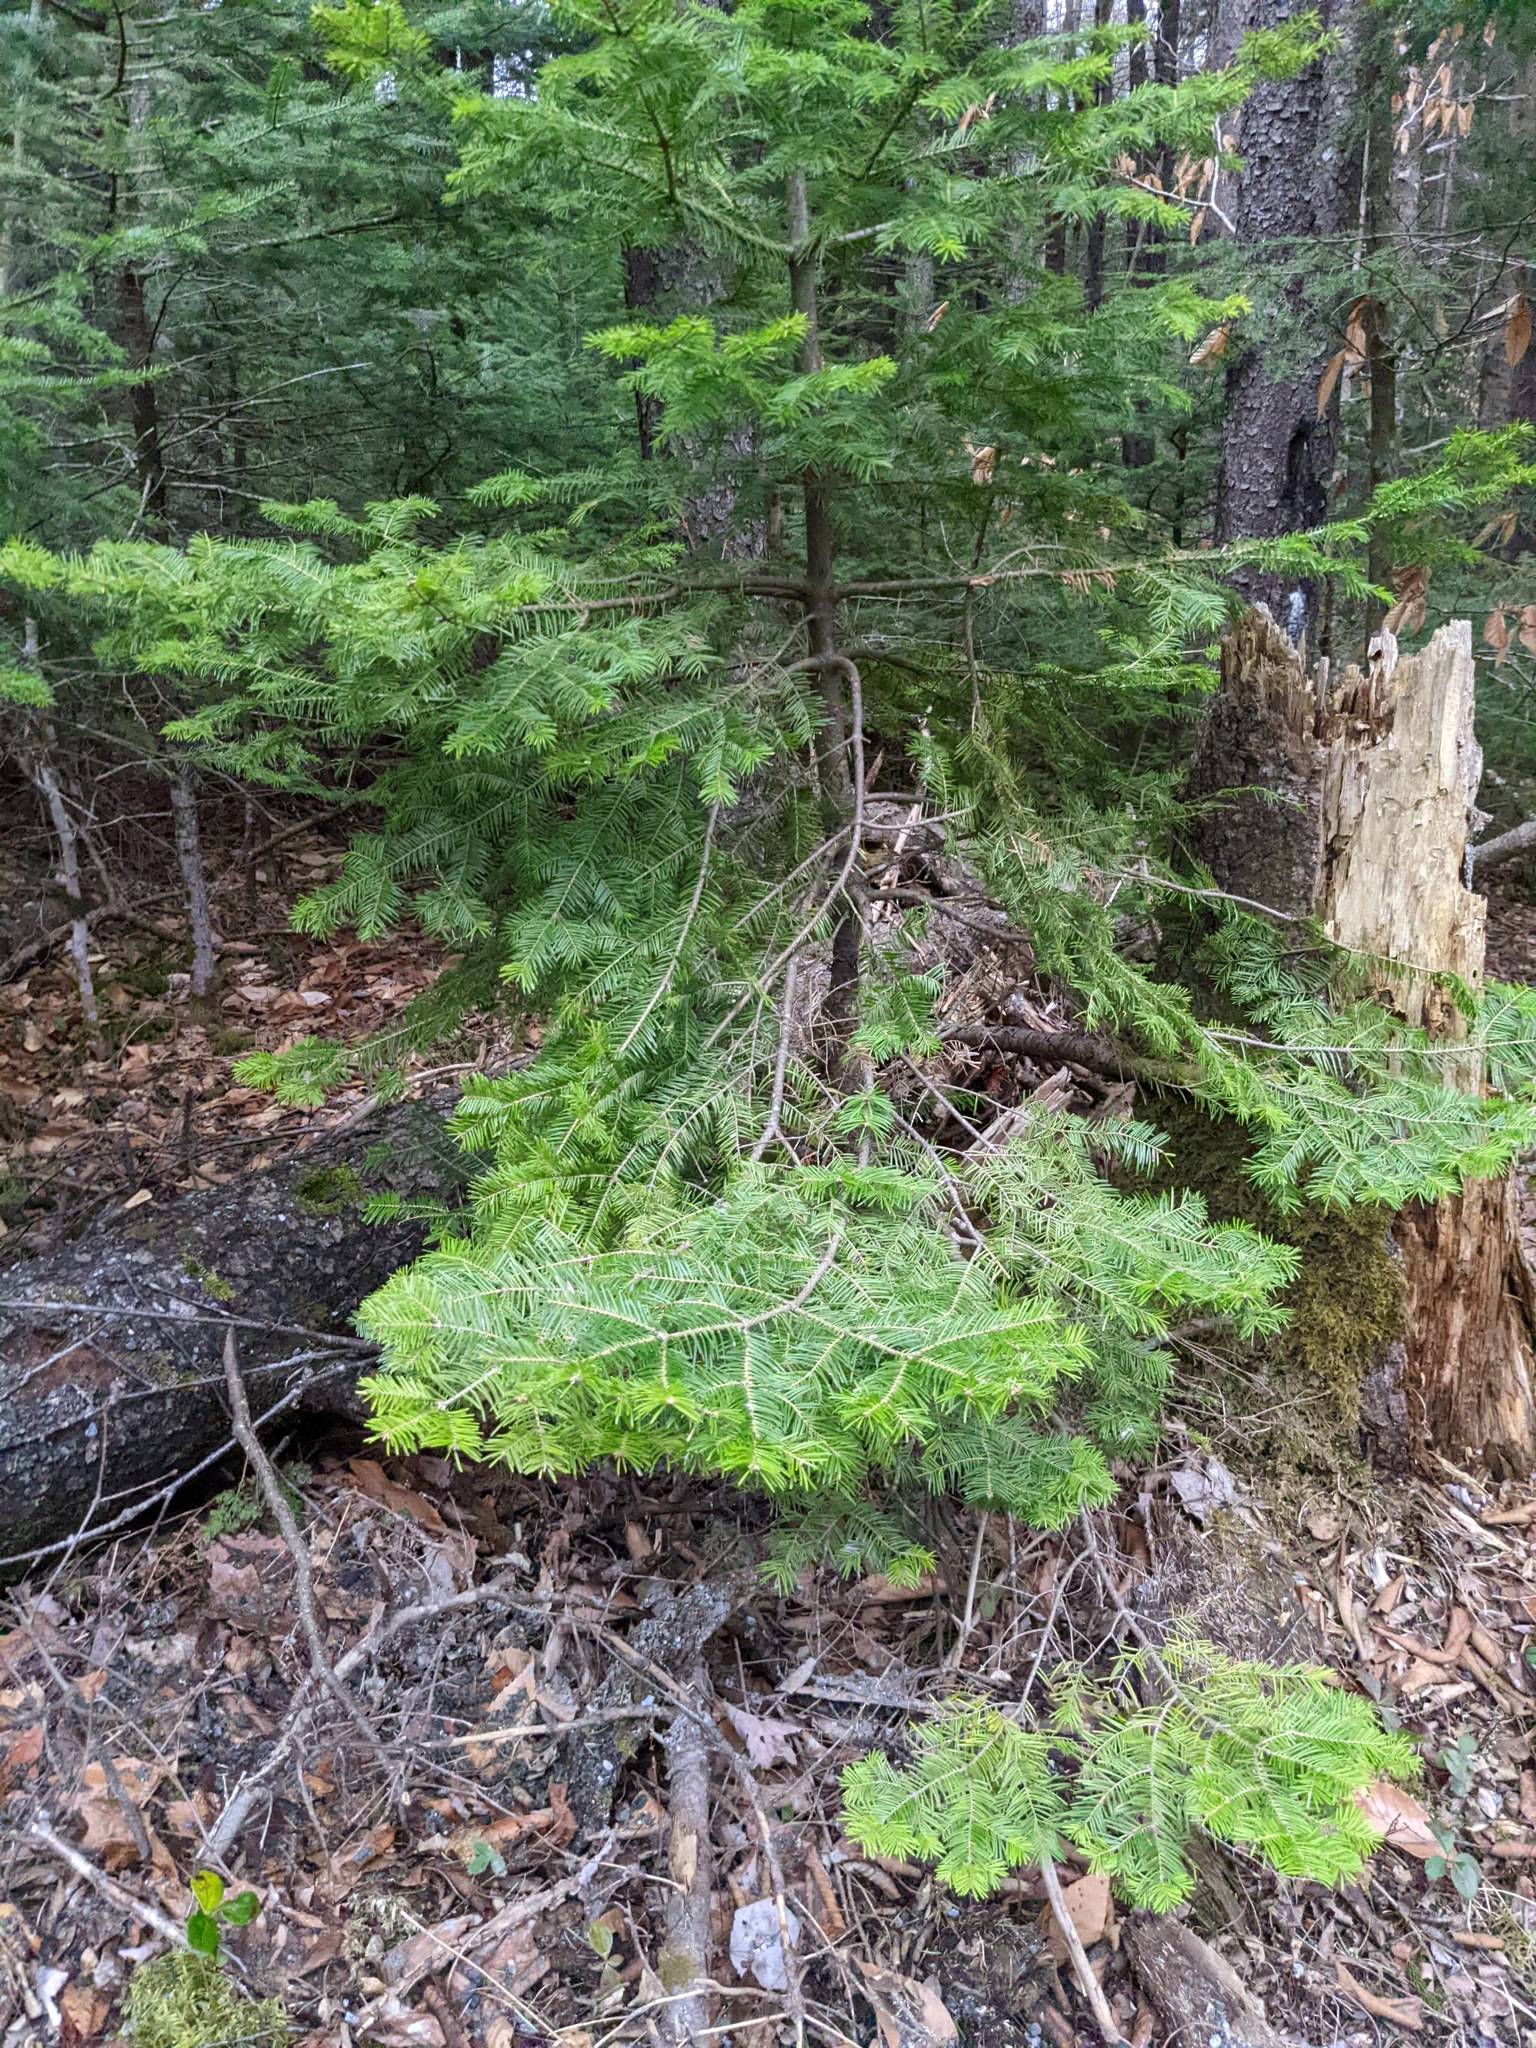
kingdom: Plantae
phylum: Tracheophyta
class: Pinopsida
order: Pinales
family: Pinaceae
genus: Abies
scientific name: Abies balsamea
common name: Balsam fir
